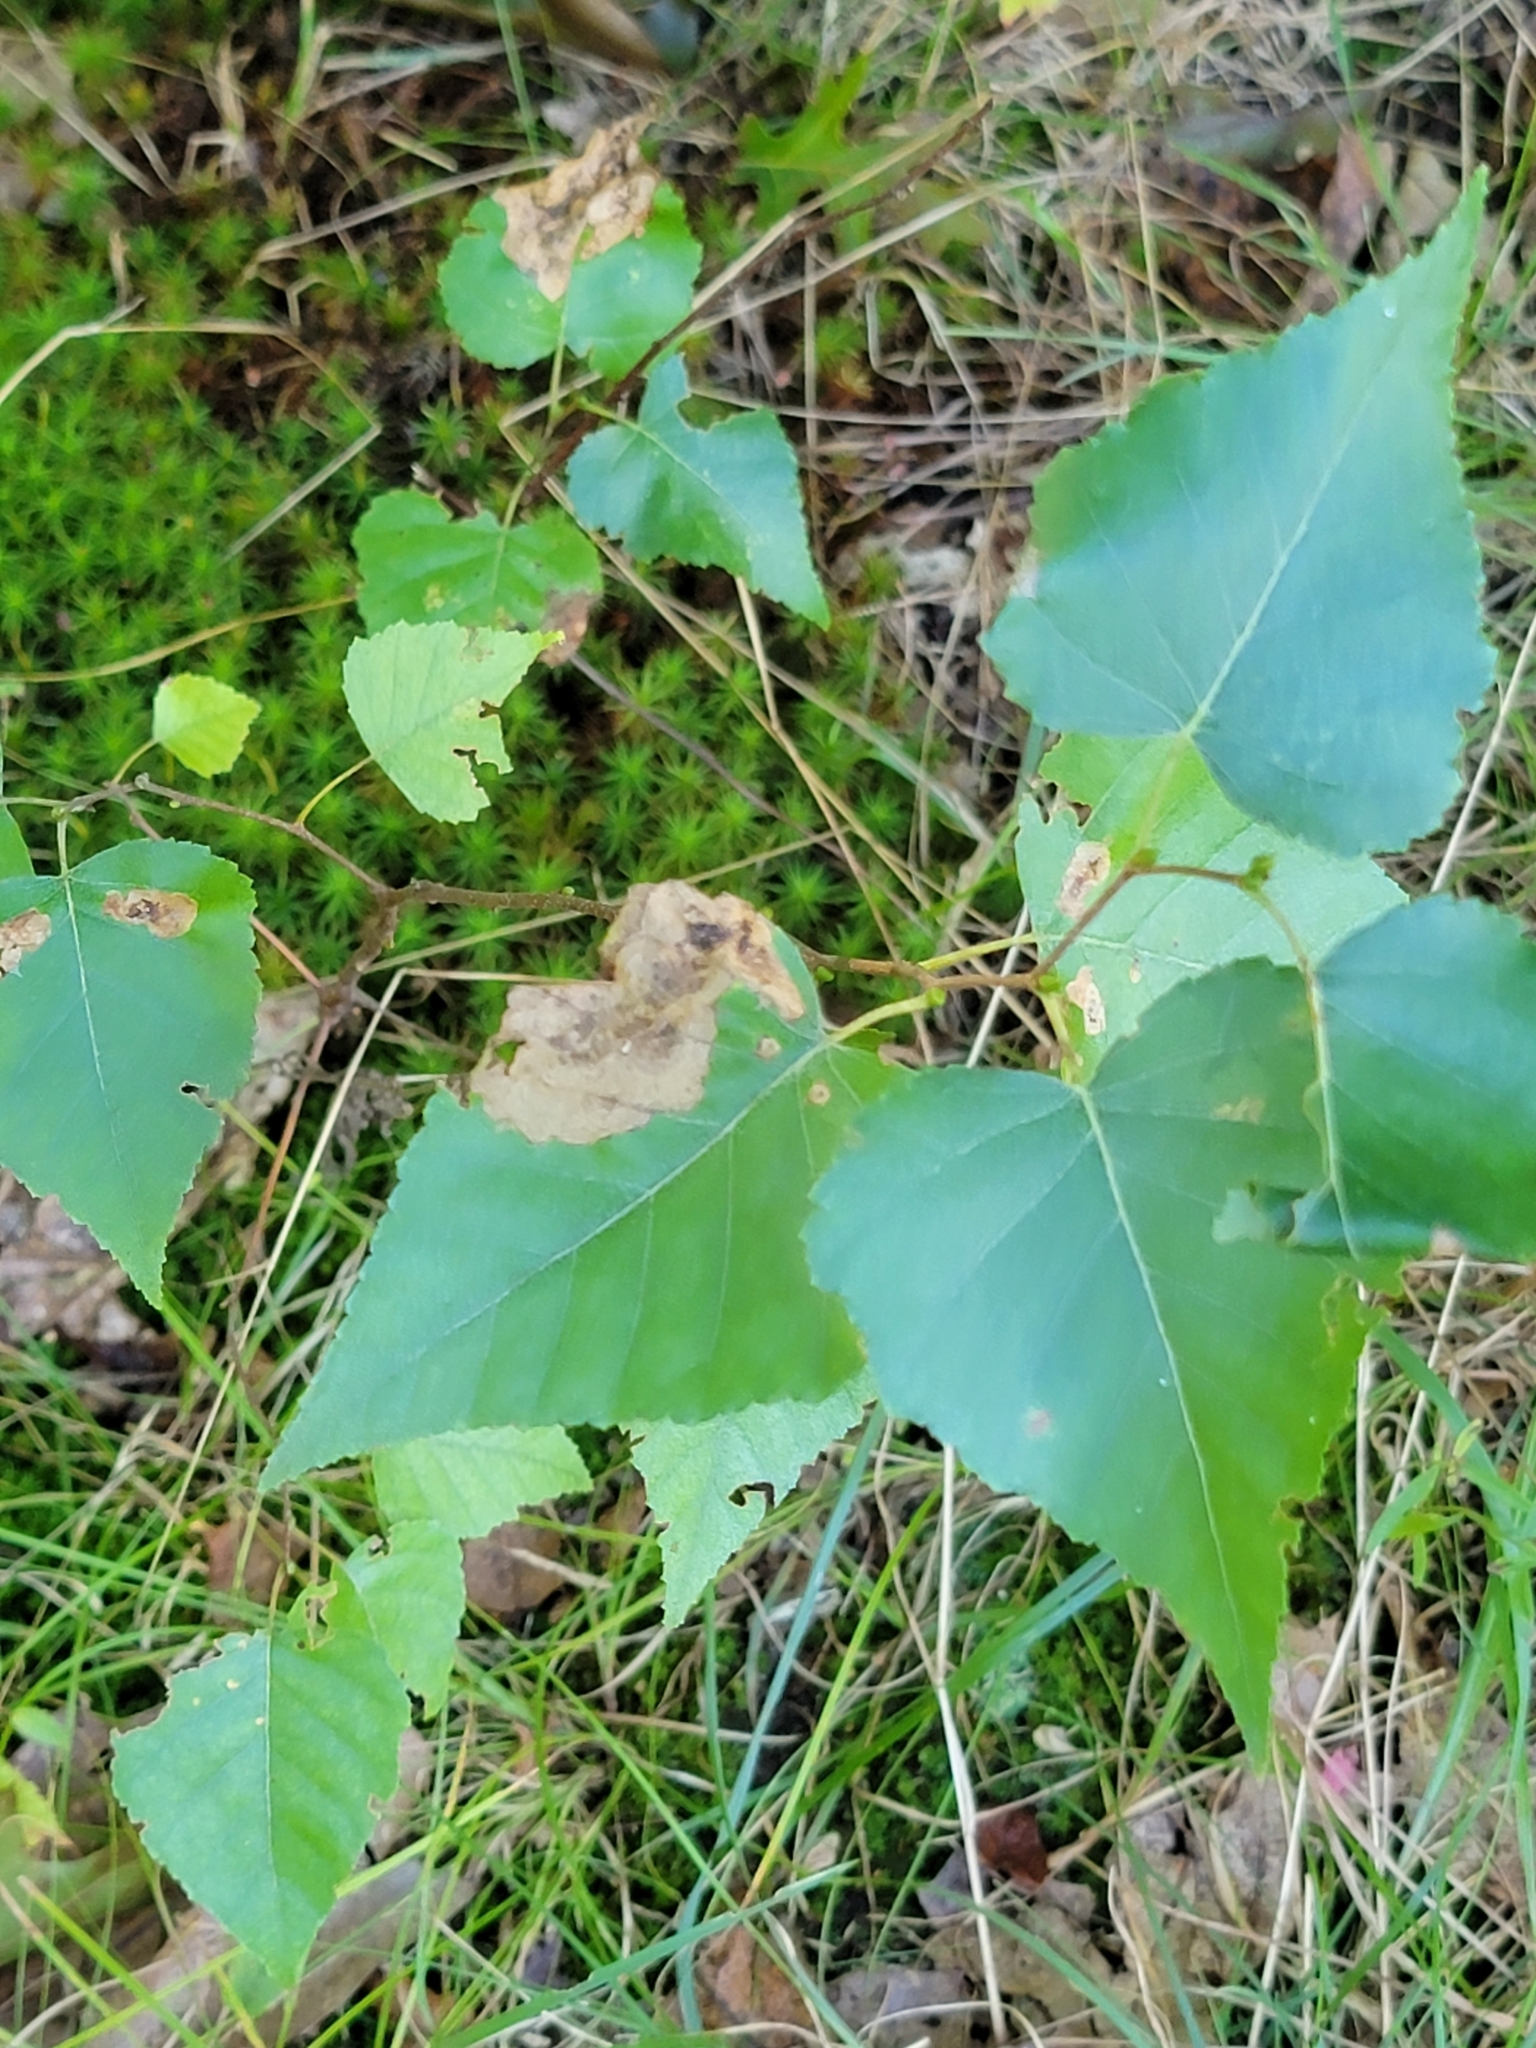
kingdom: Plantae
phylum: Tracheophyta
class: Magnoliopsida
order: Fagales
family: Betulaceae
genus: Betula
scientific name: Betula populifolia
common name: Fire birch
